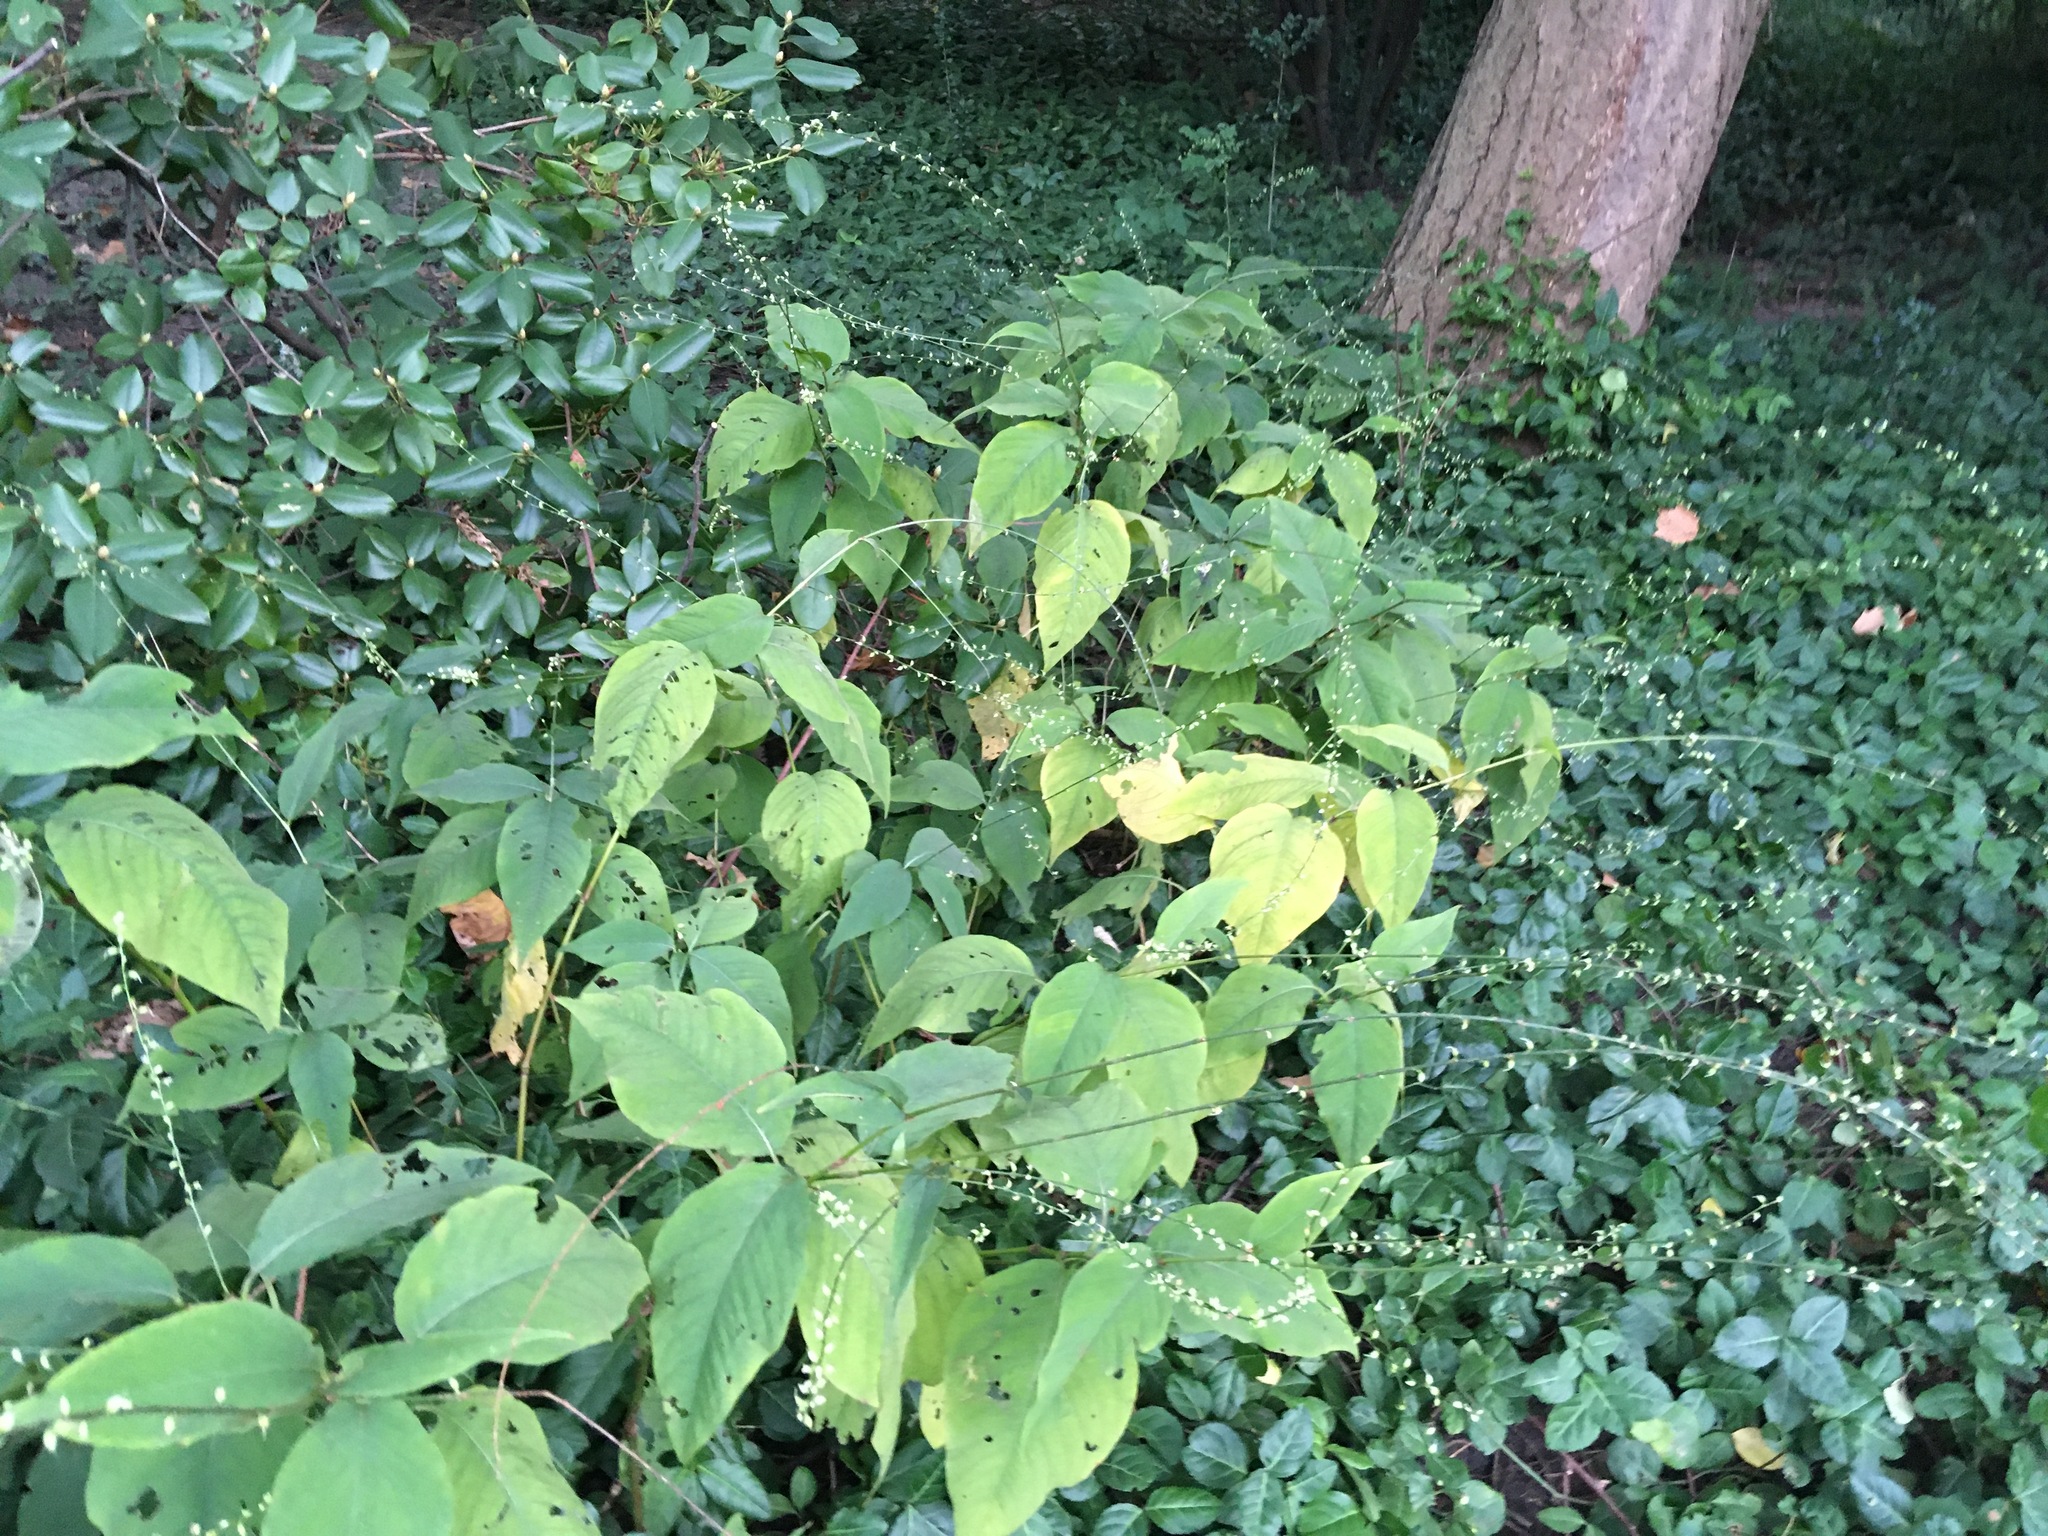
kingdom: Plantae
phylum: Tracheophyta
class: Magnoliopsida
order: Caryophyllales
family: Polygonaceae
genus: Persicaria
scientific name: Persicaria virginiana
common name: Jumpseed
